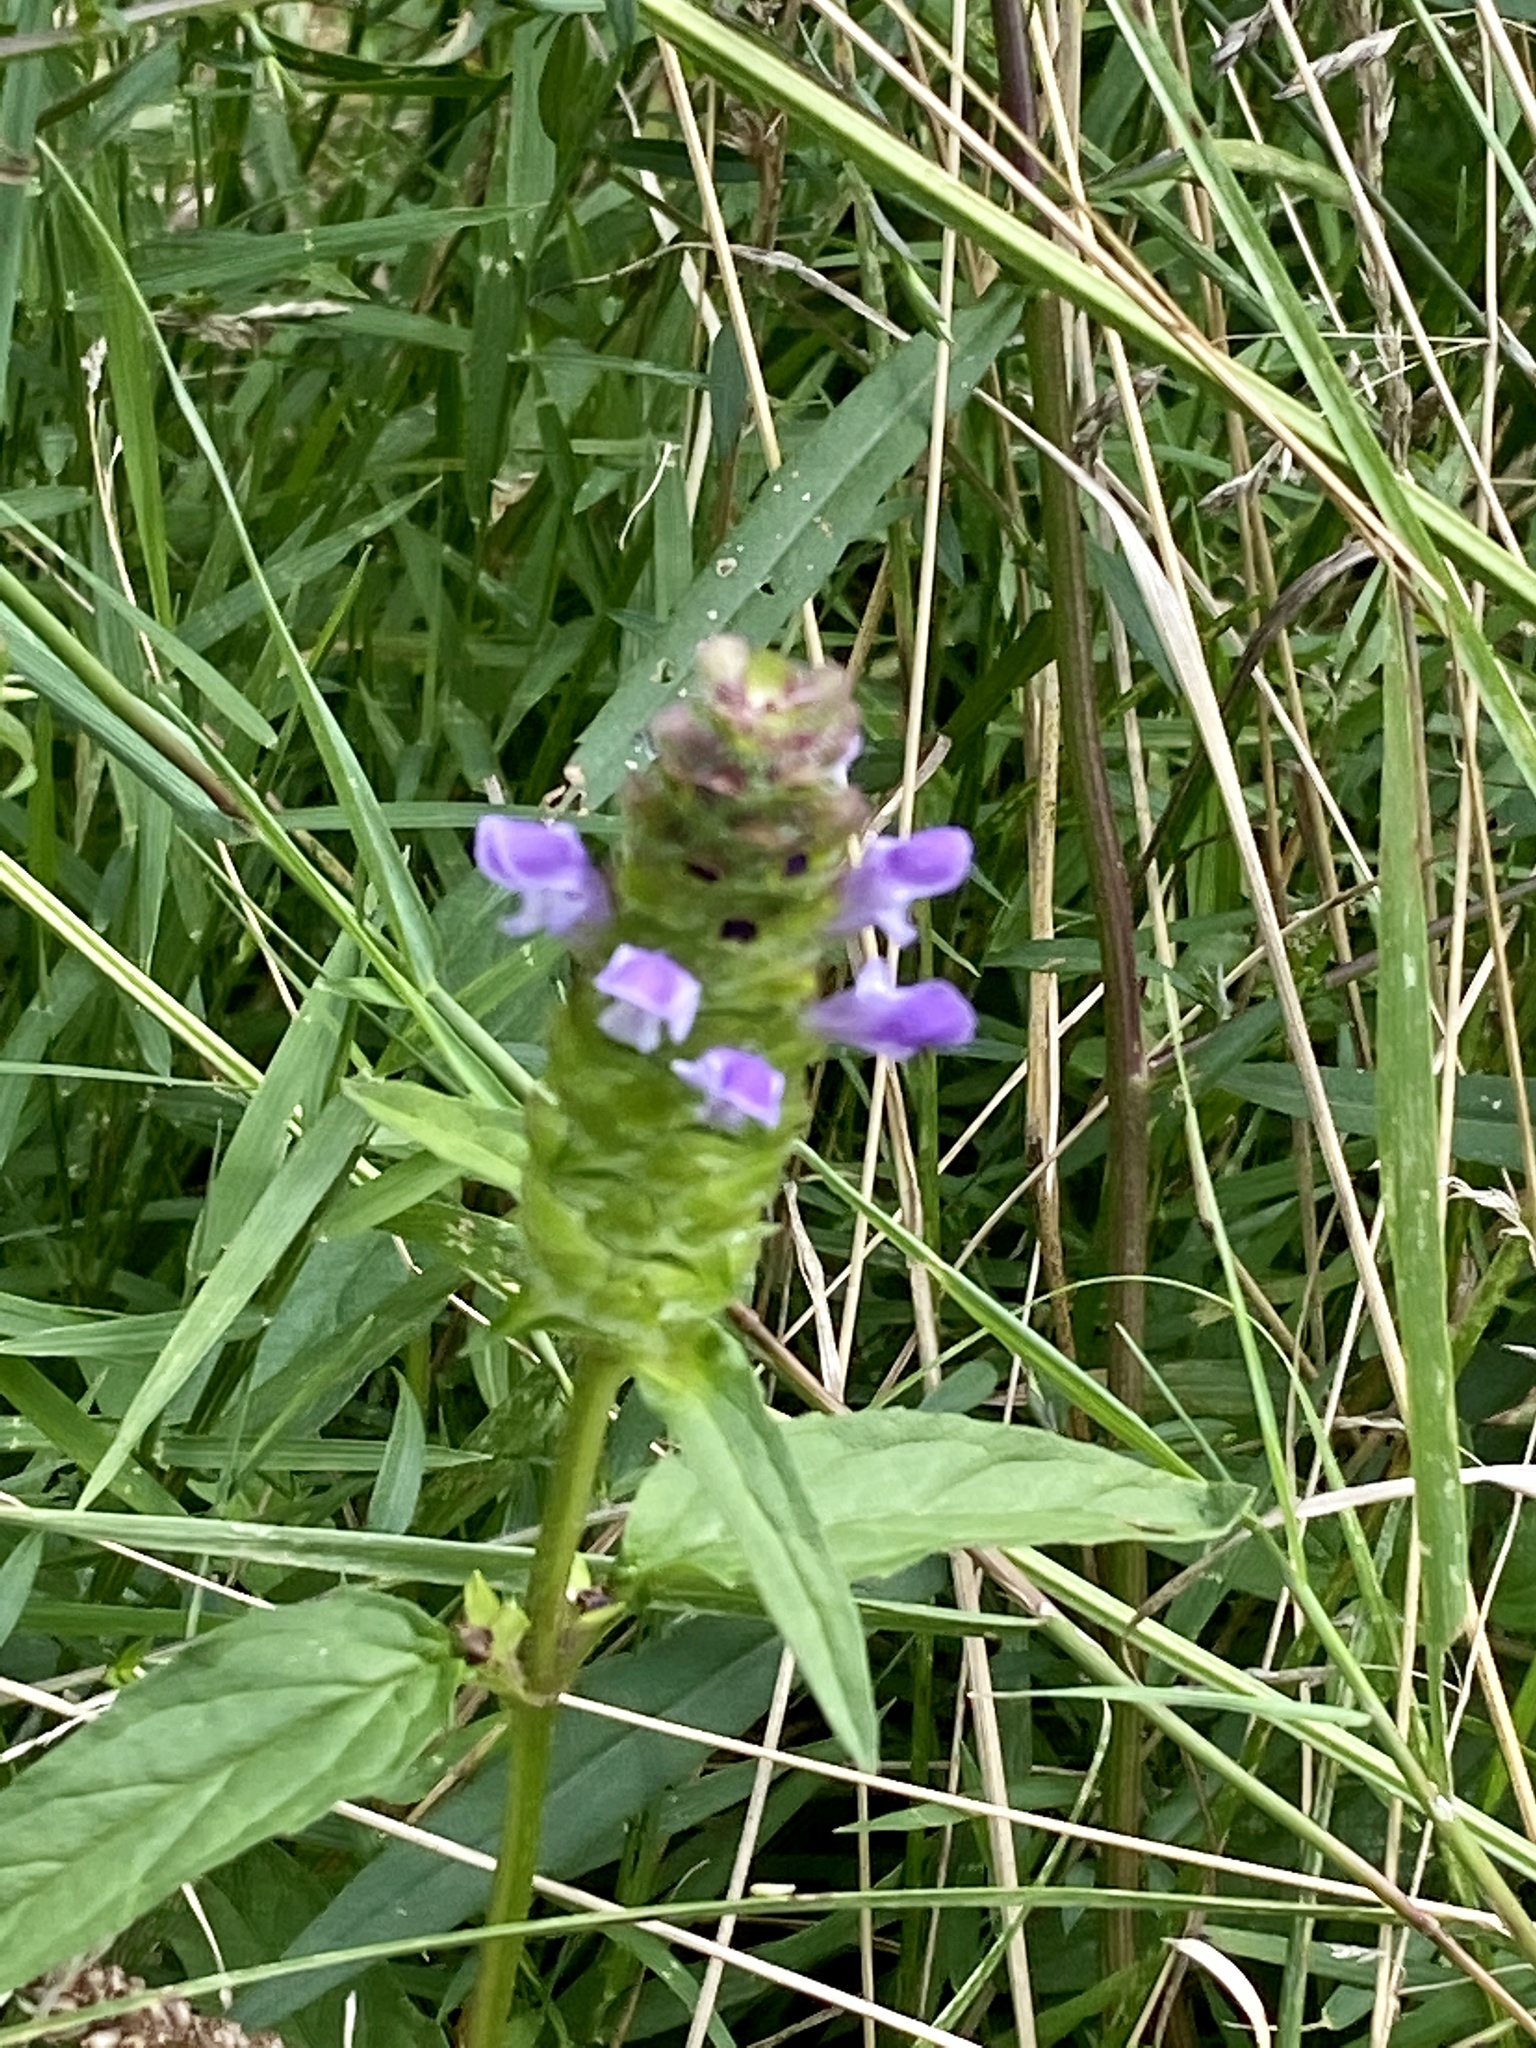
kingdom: Plantae
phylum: Tracheophyta
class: Magnoliopsida
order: Lamiales
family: Lamiaceae
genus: Prunella
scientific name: Prunella vulgaris
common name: Heal-all
